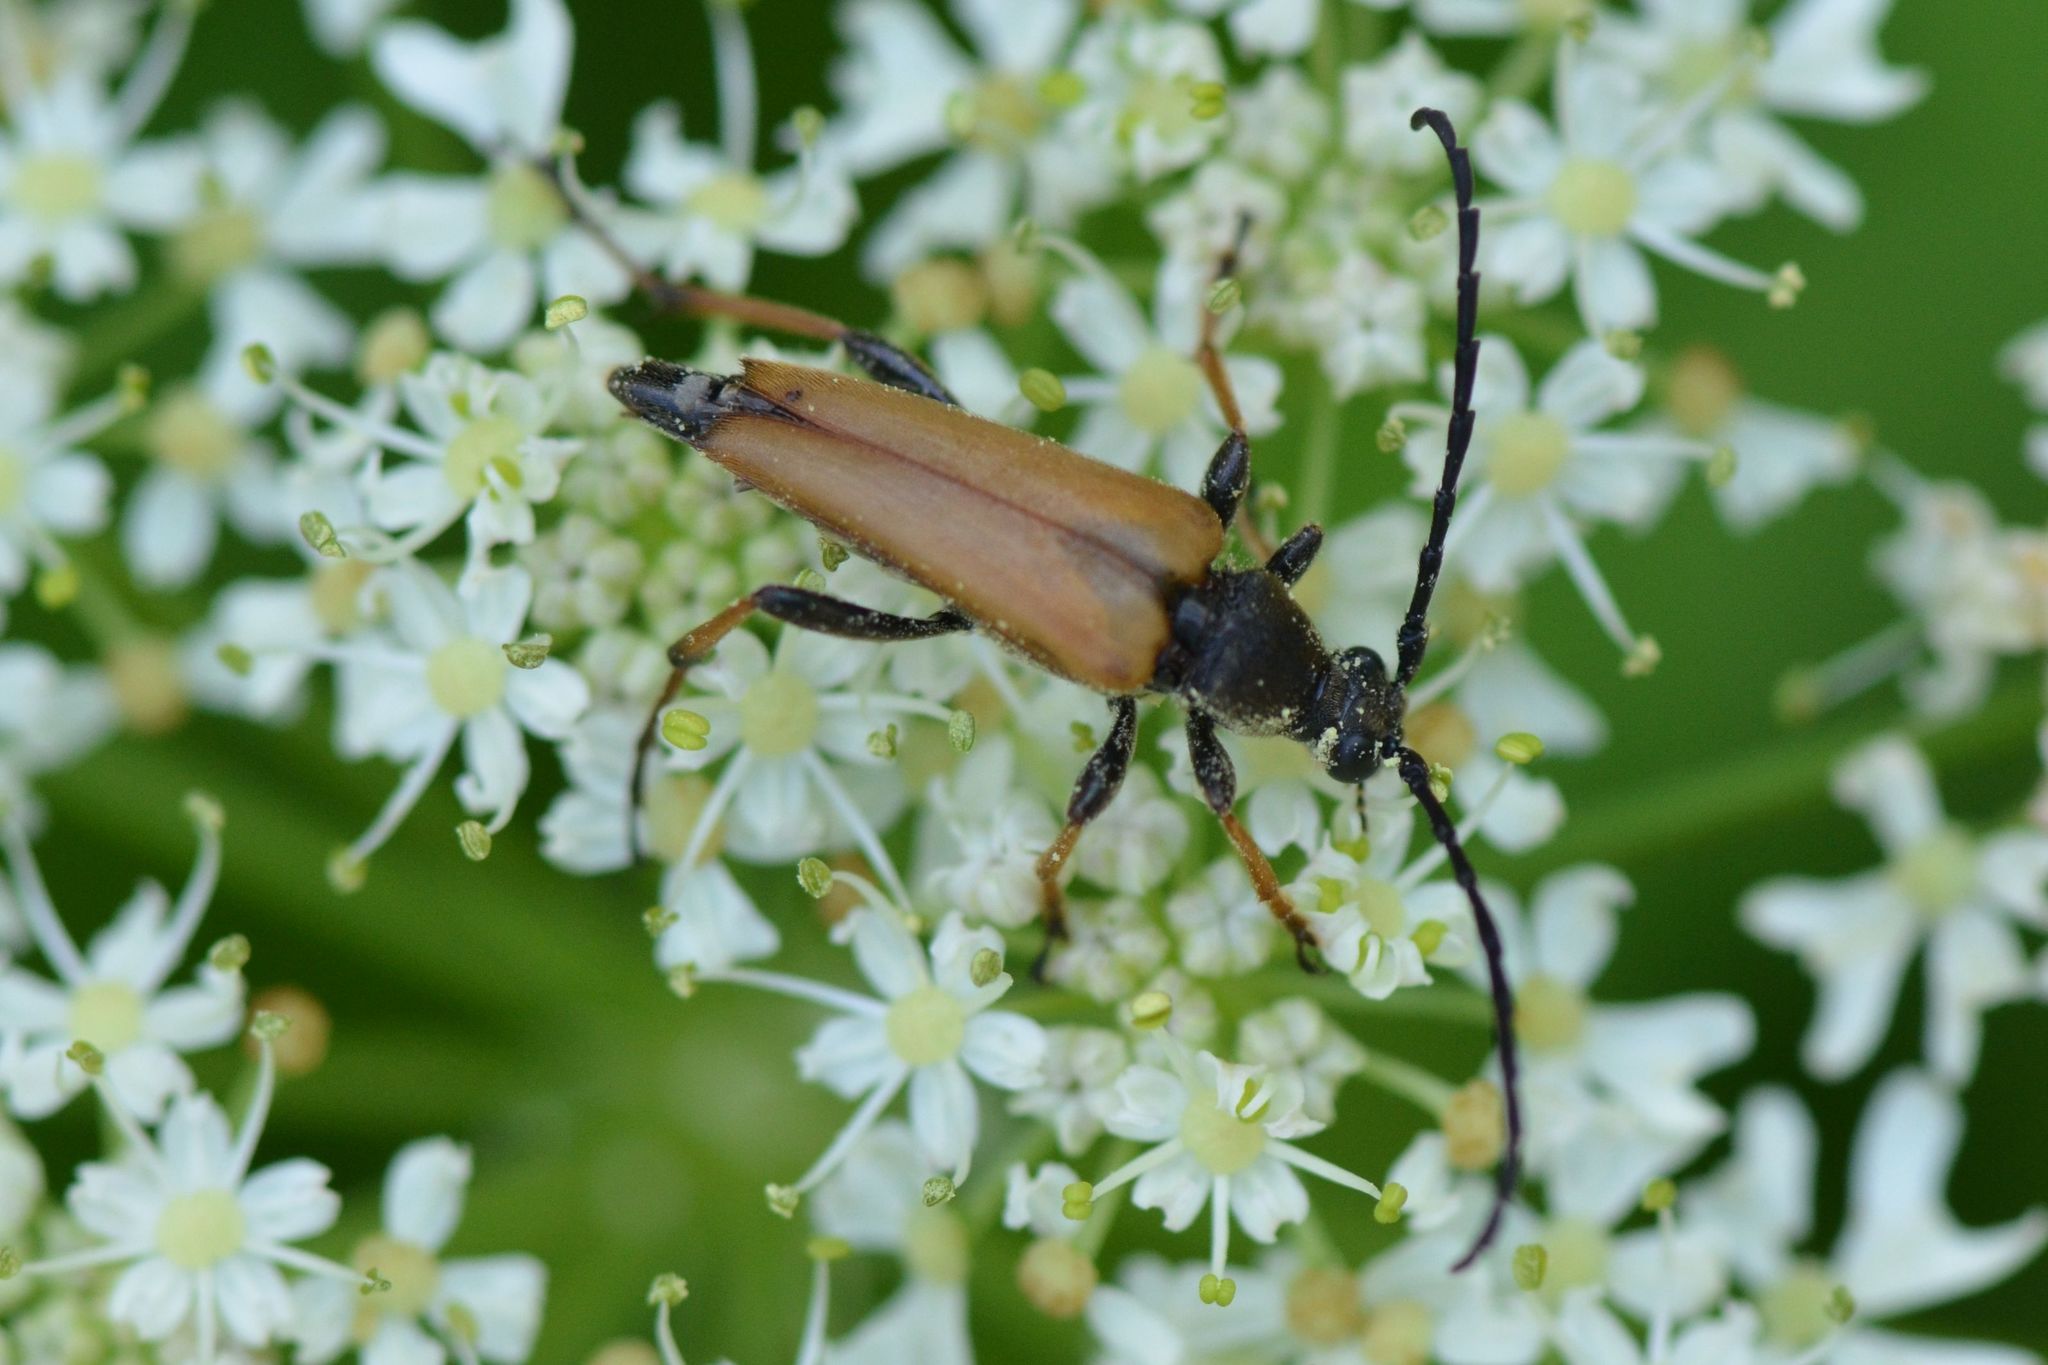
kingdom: Animalia
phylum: Arthropoda
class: Insecta
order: Coleoptera
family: Cerambycidae
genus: Stictoleptura
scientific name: Stictoleptura rubra
